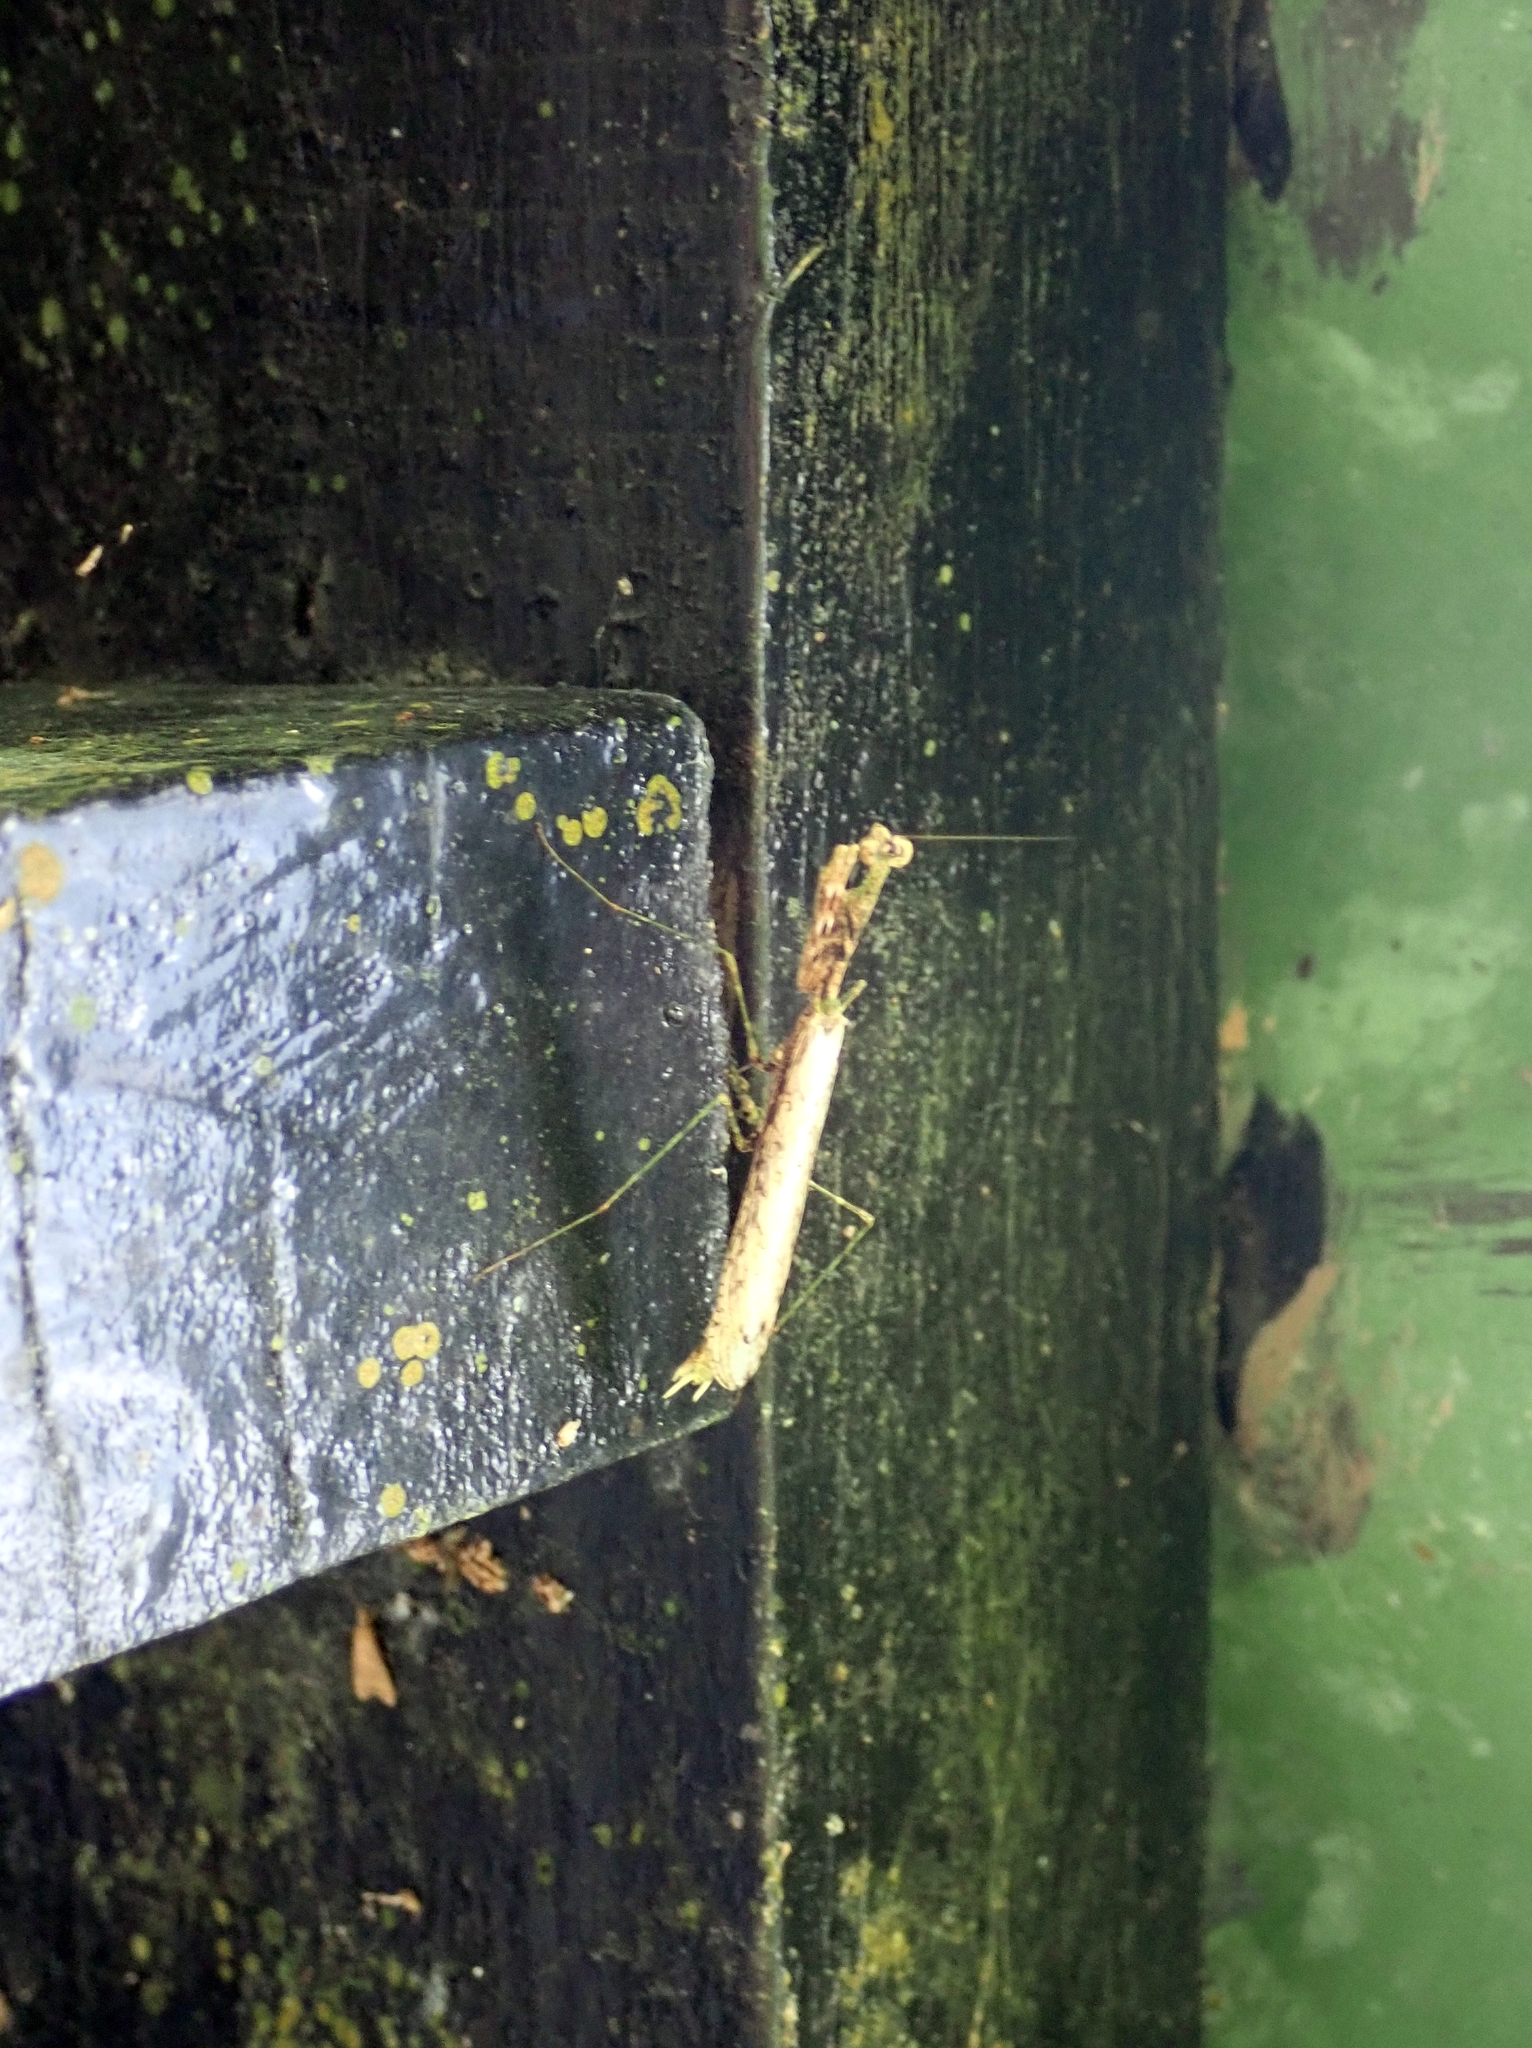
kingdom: Animalia
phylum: Arthropoda
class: Insecta
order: Mantodea
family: Thespidae
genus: Pogonogaster
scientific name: Pogonogaster tristani
